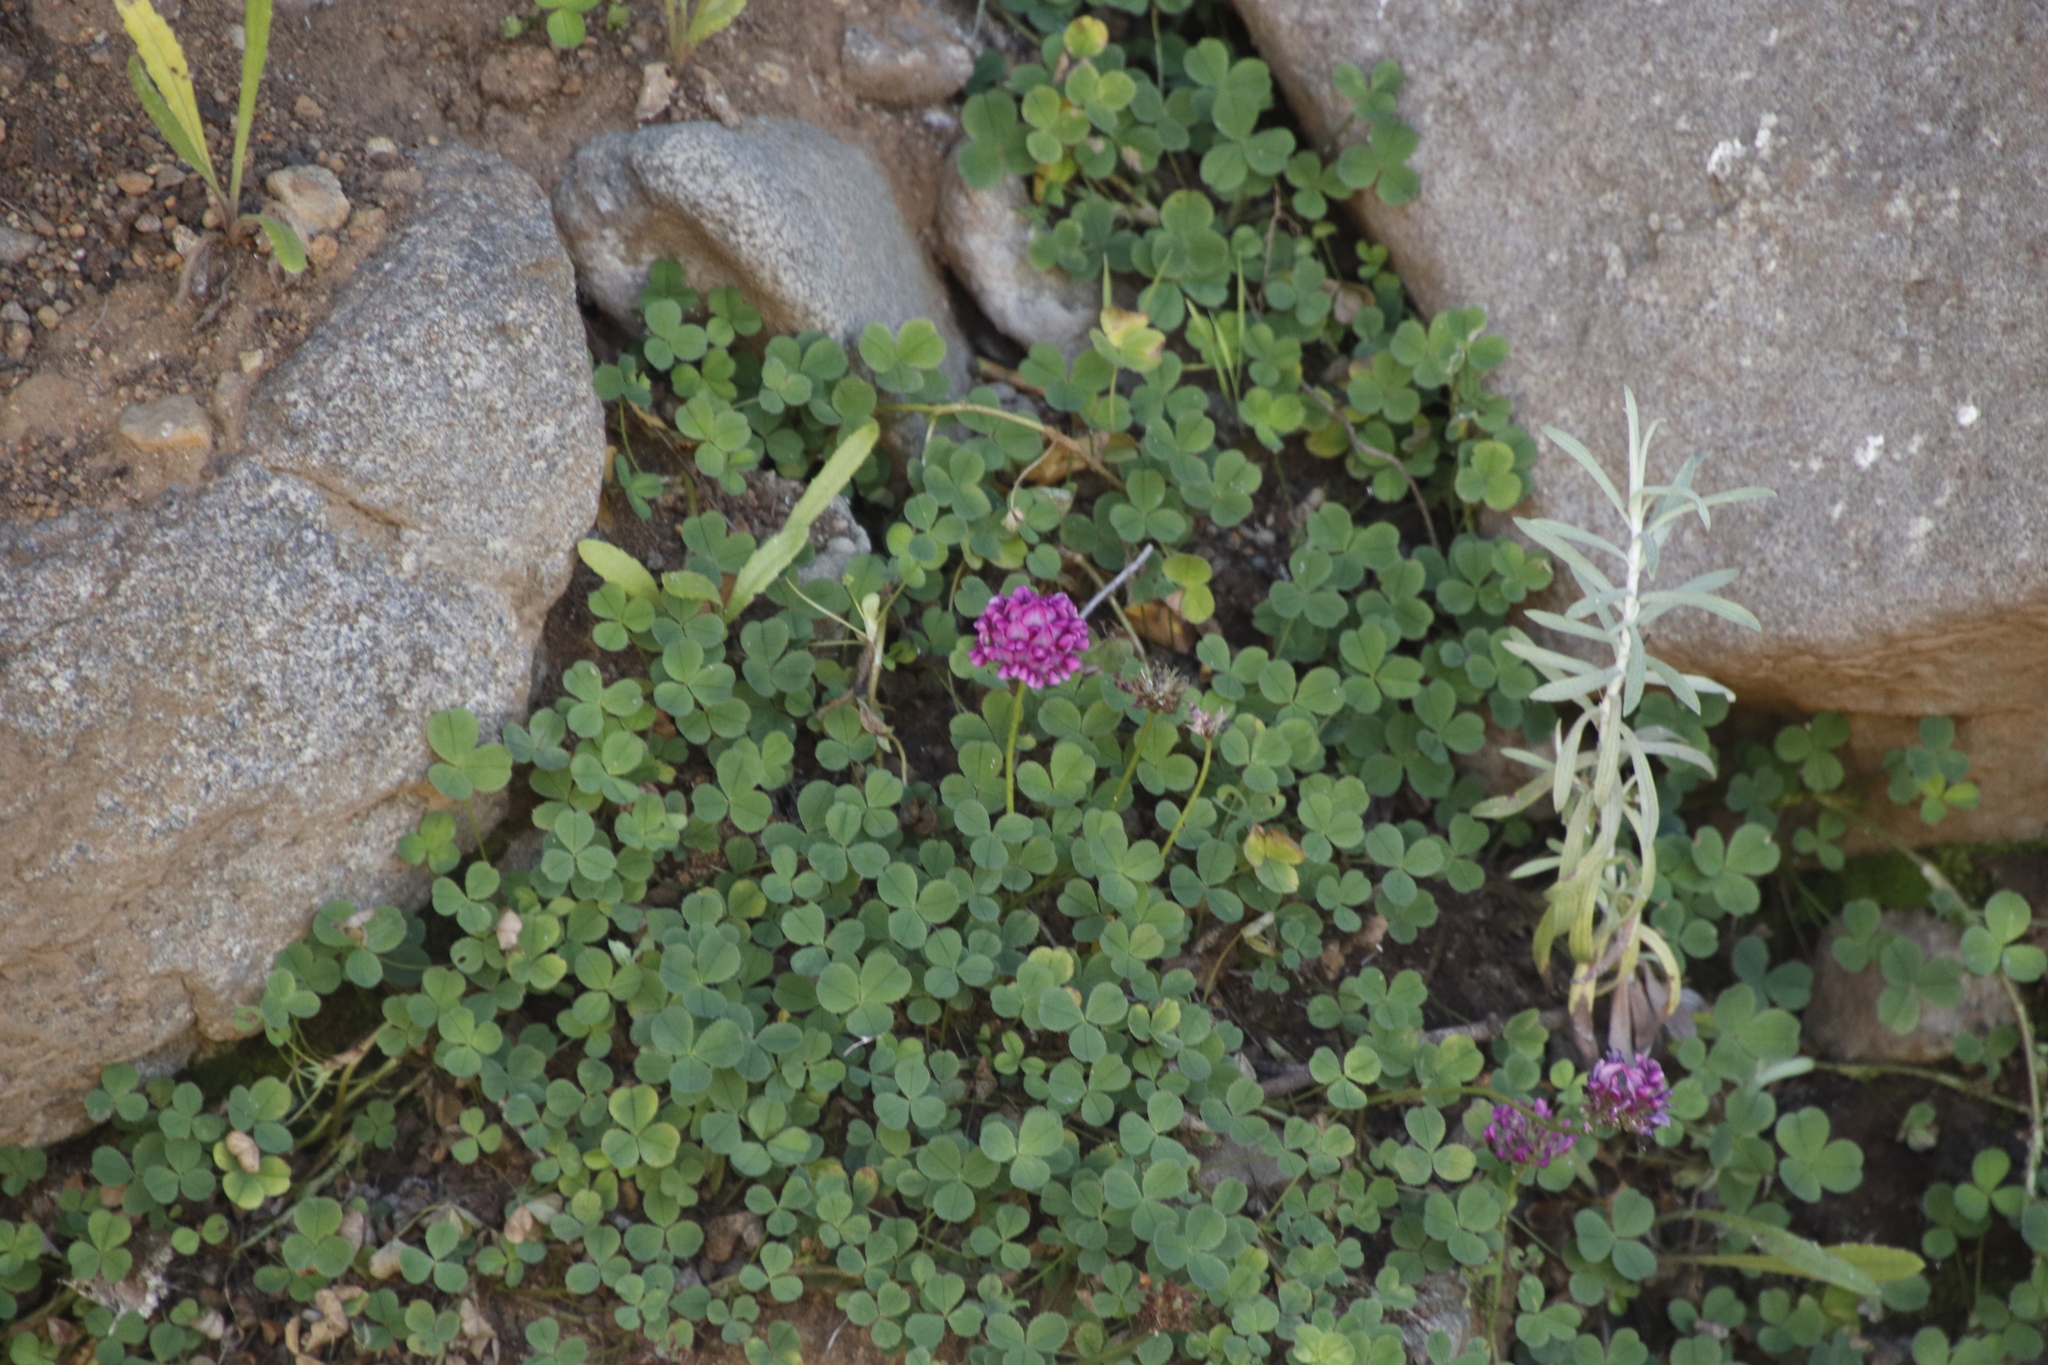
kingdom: Plantae
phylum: Tracheophyta
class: Magnoliopsida
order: Fabales
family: Fabaceae
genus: Trifolium
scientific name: Trifolium burchellianum
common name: Burchell's clover
